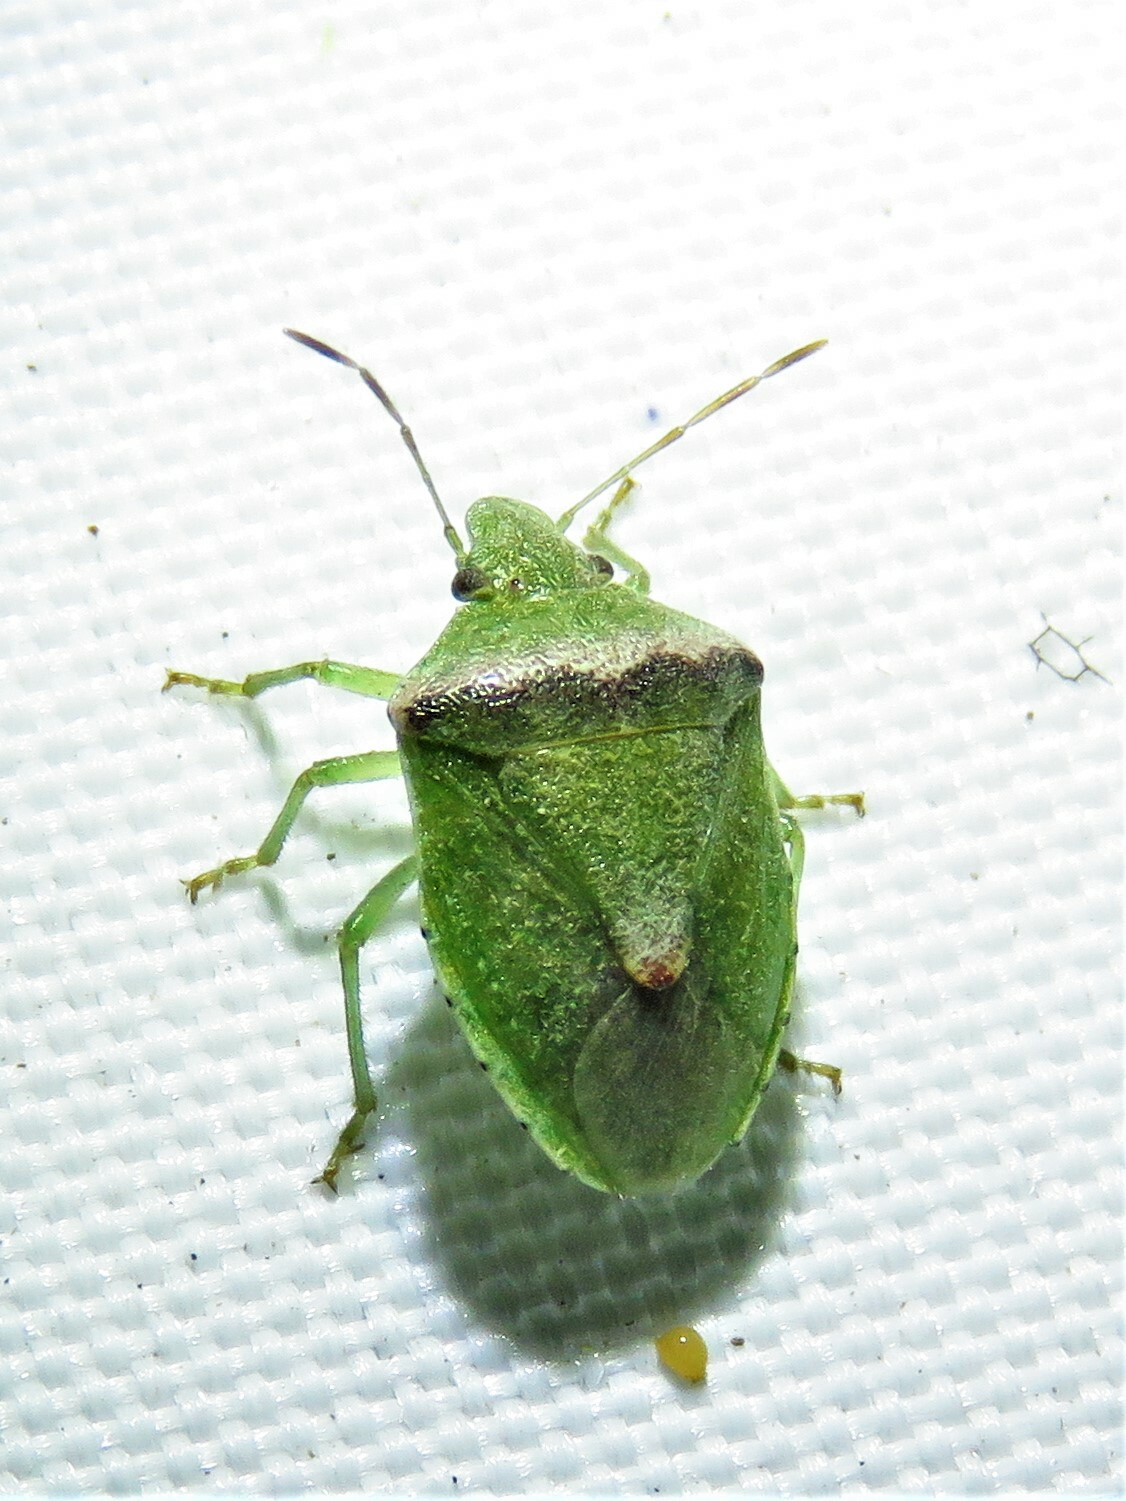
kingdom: Animalia
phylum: Arthropoda
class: Insecta
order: Hemiptera
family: Pentatomidae
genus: Cyptocephala
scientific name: Cyptocephala antiguensis
